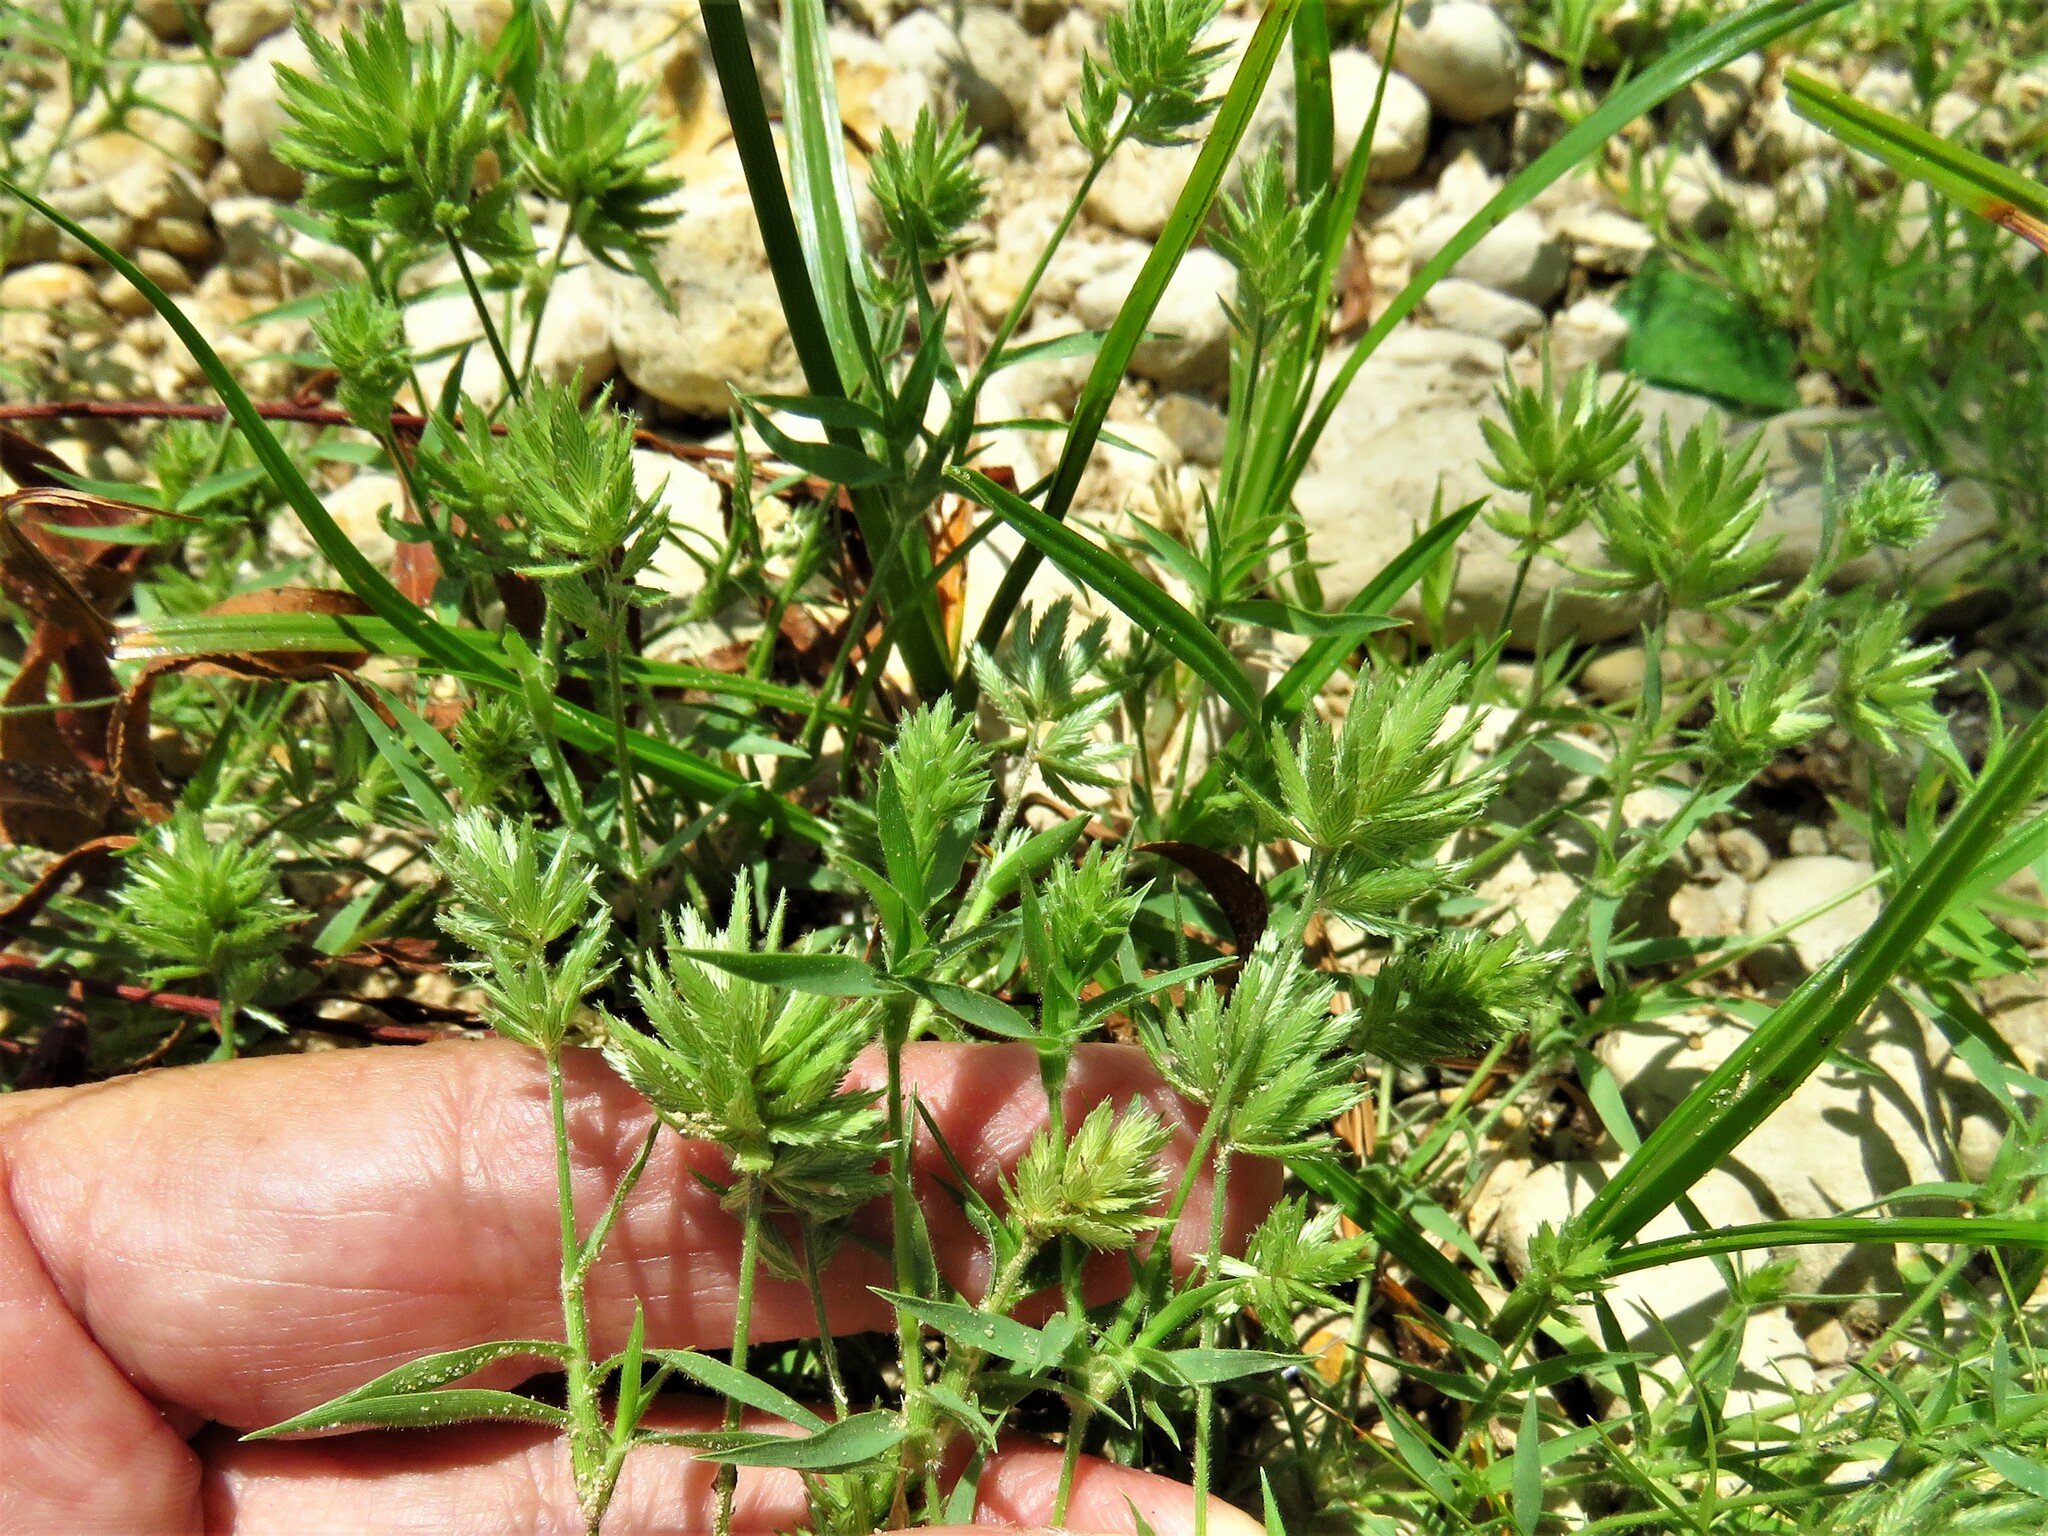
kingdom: Plantae
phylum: Tracheophyta
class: Liliopsida
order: Poales
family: Poaceae
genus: Eragrostis
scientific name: Eragrostis reptans
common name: Creeping love grass
